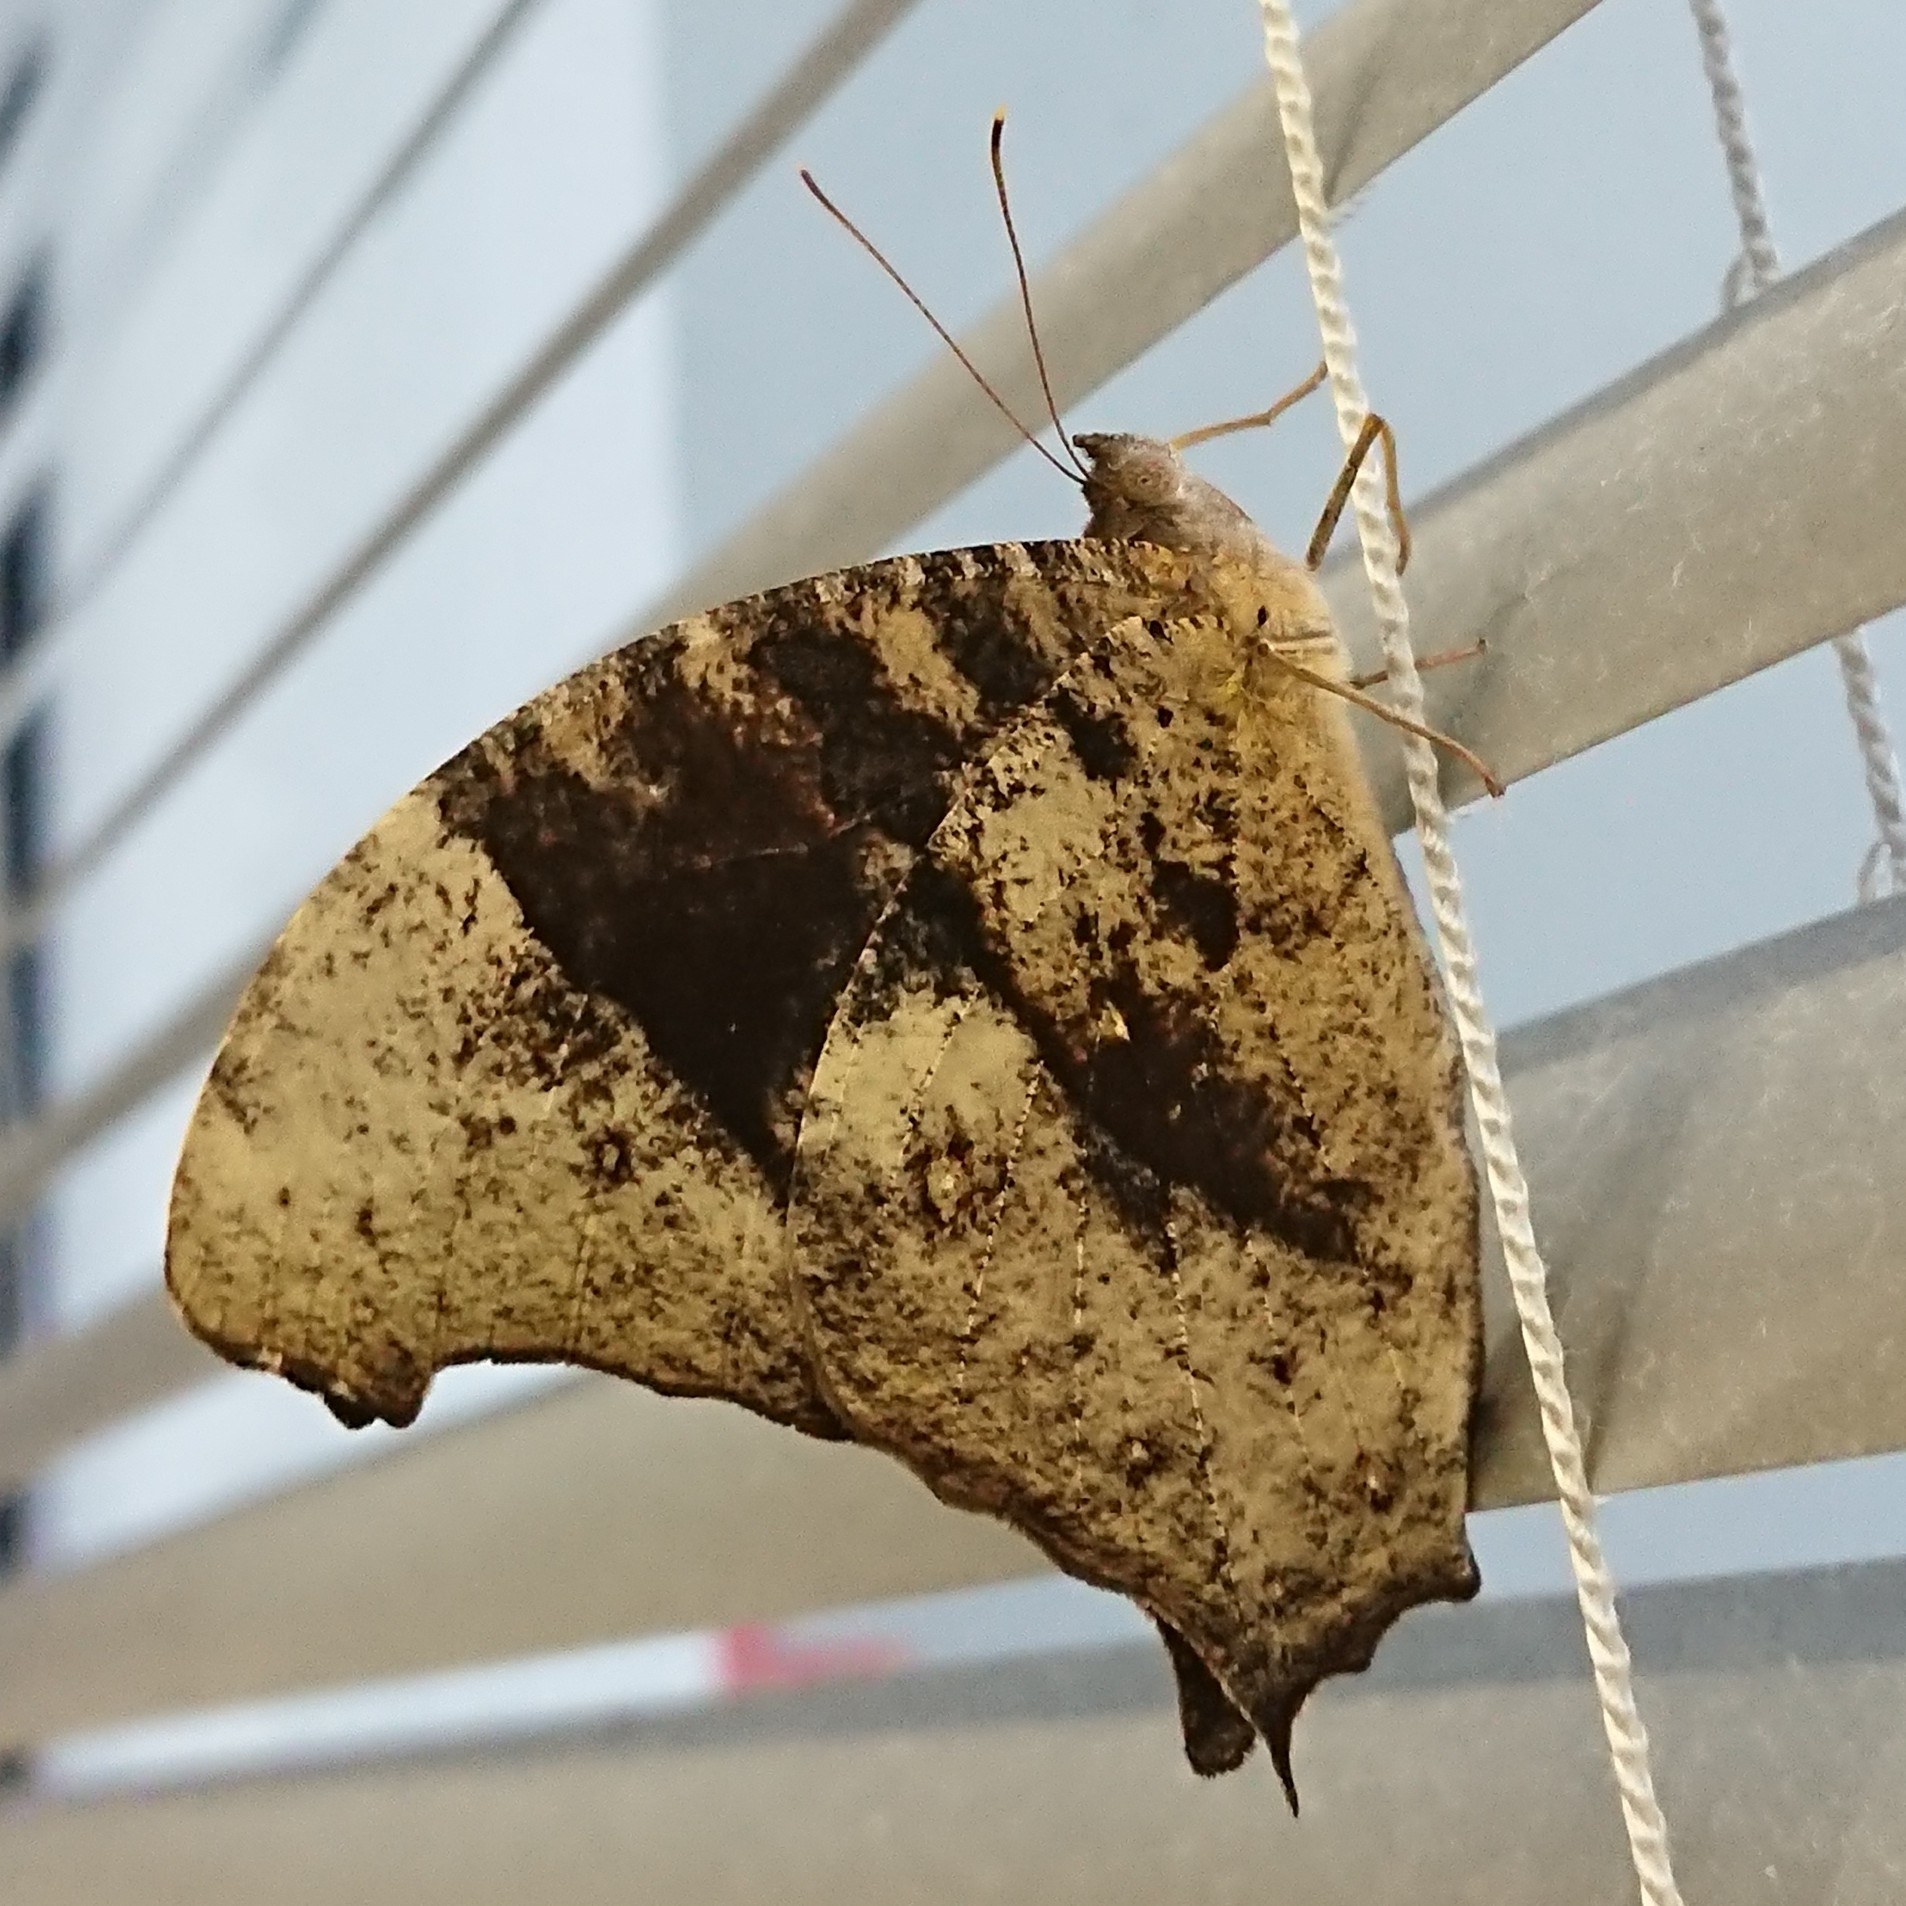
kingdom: Animalia
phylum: Arthropoda
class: Insecta
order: Lepidoptera
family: Nymphalidae
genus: Melanitis
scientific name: Melanitis leda
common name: Twilight brown
